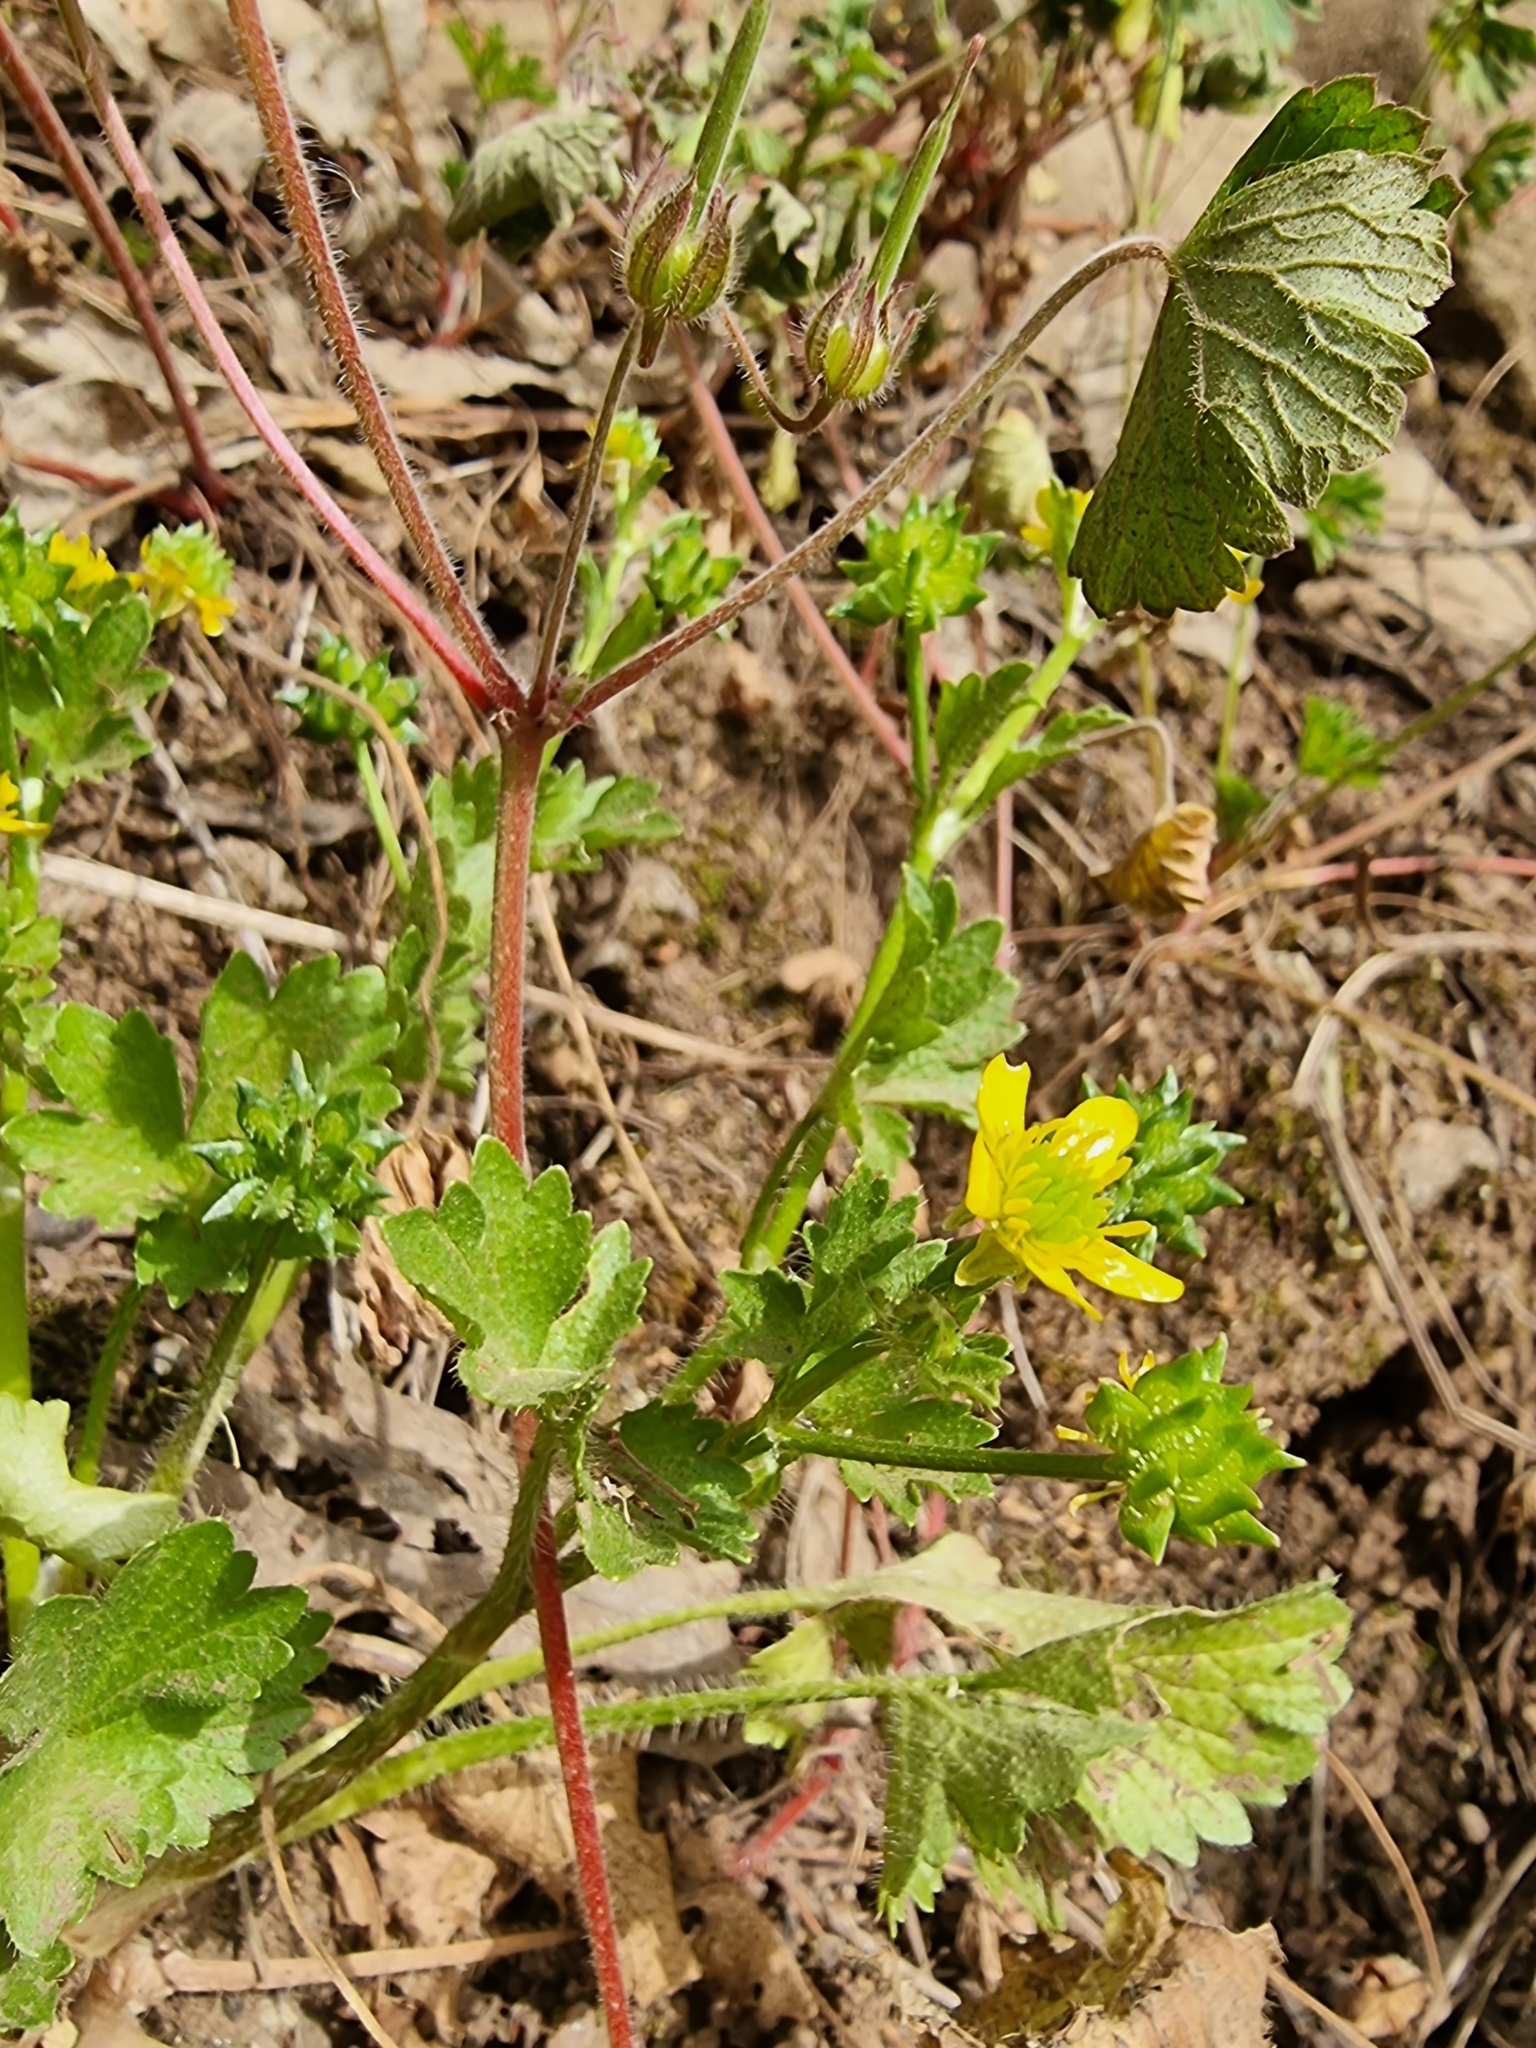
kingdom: Plantae
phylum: Tracheophyta
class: Magnoliopsida
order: Ranunculales
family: Ranunculaceae
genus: Ranunculus
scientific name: Ranunculus muricatus
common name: Rough-fruited buttercup
